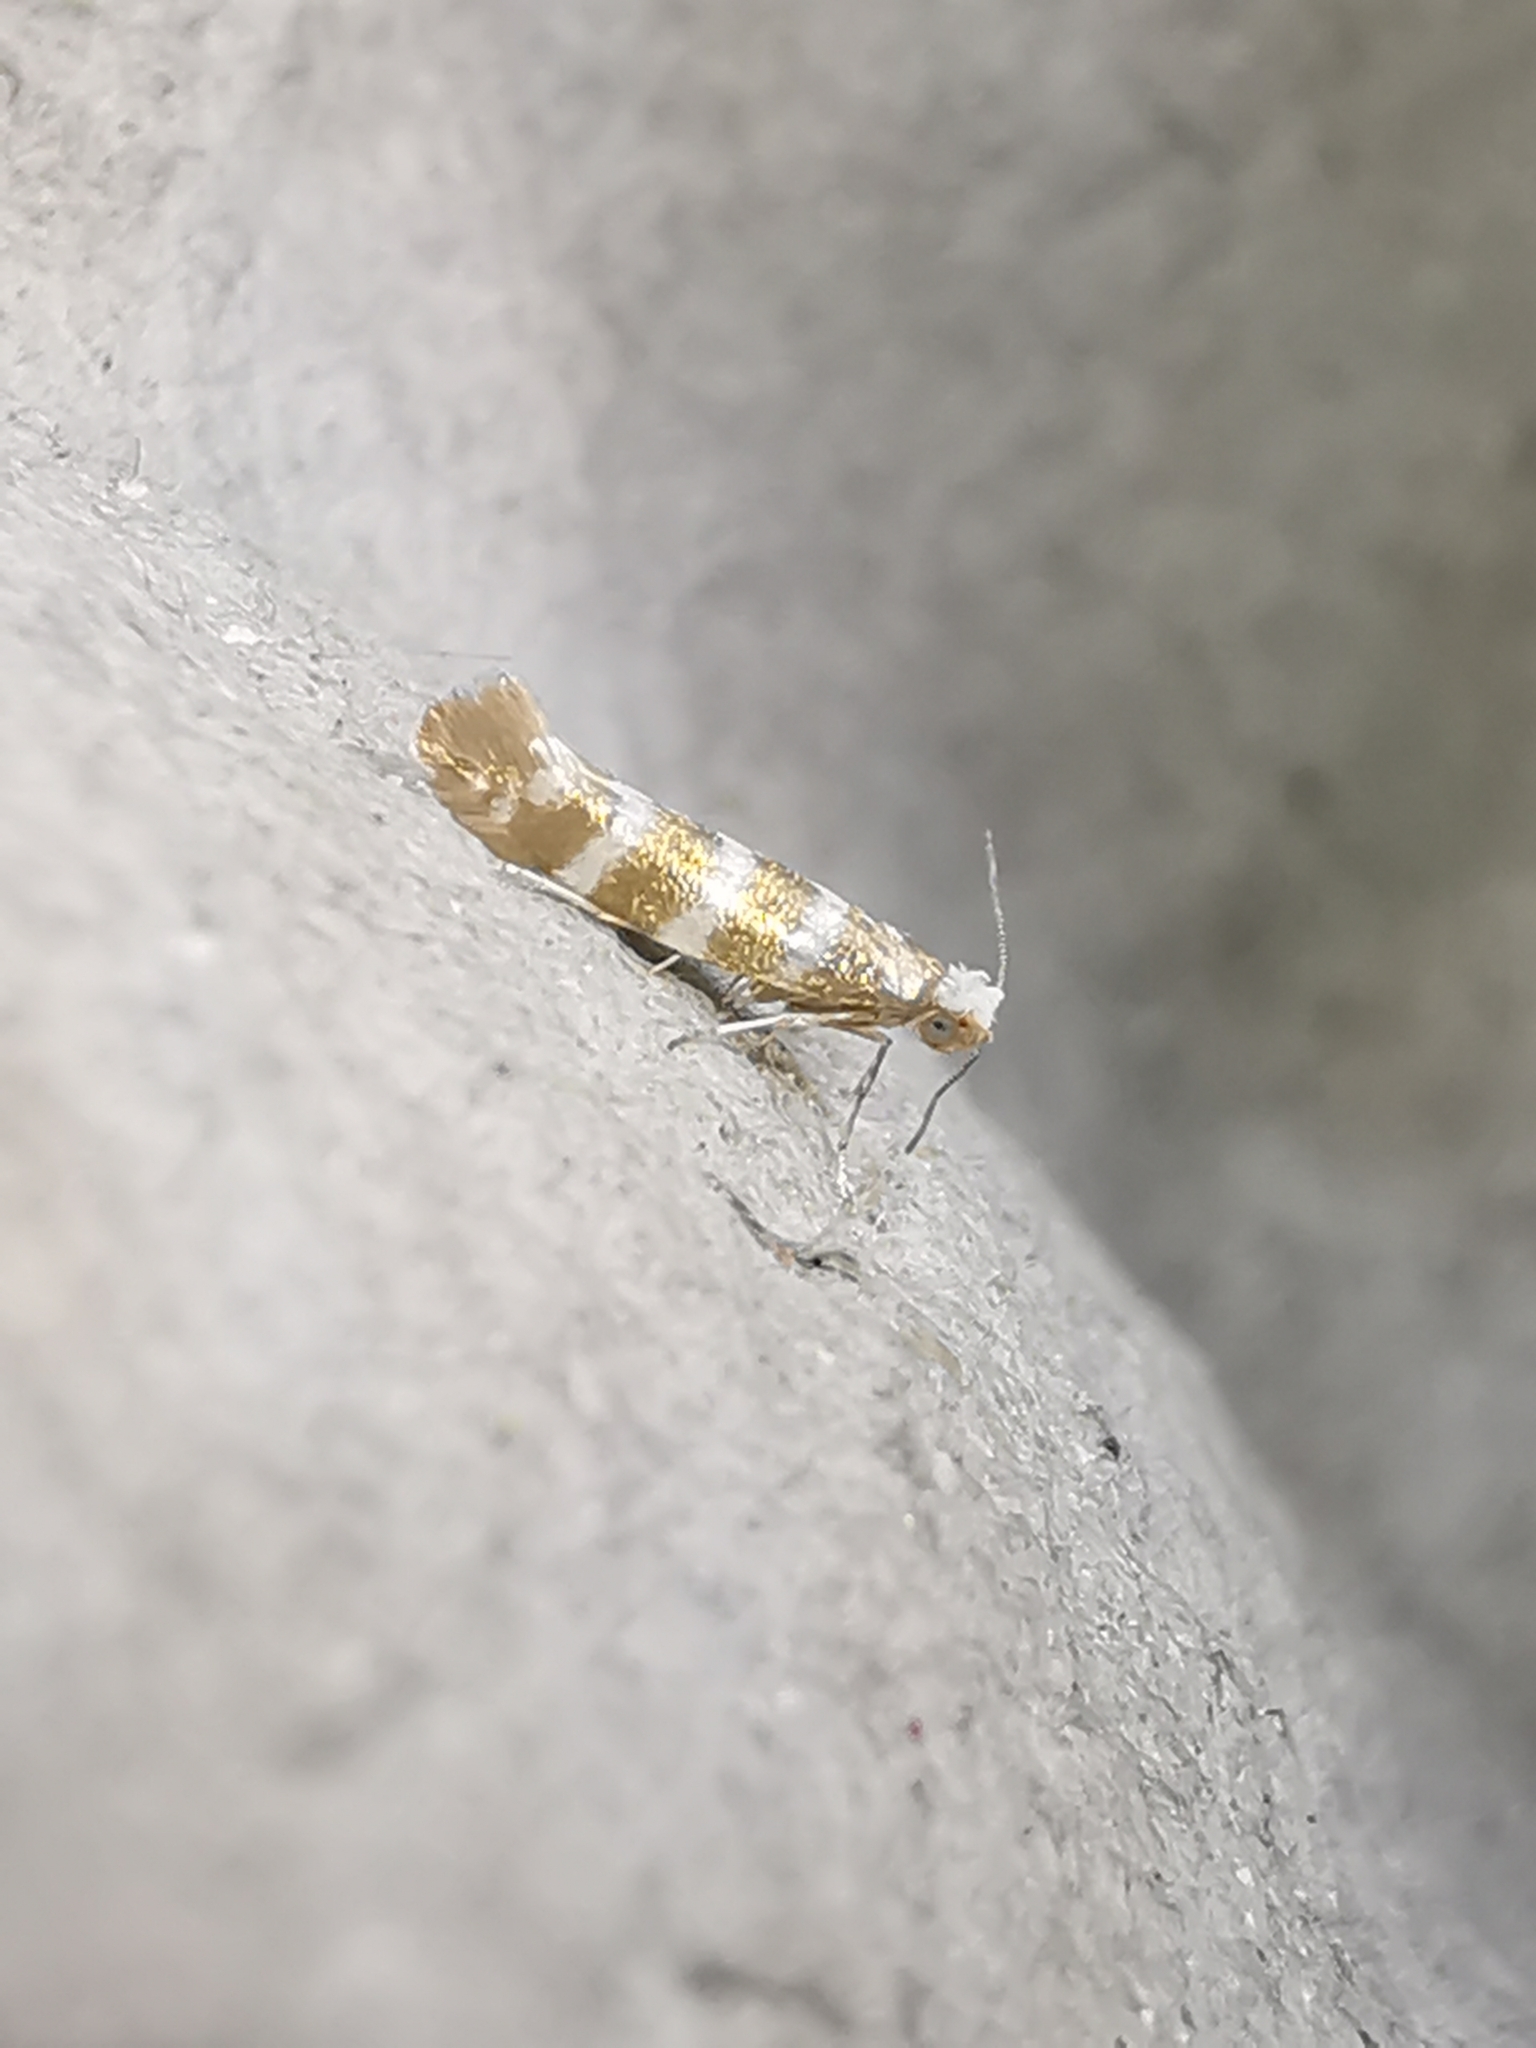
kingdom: Animalia
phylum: Arthropoda
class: Insecta
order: Lepidoptera
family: Argyresthiidae
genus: Argyresthia
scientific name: Argyresthia trifasciata
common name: Triple-barred argent
